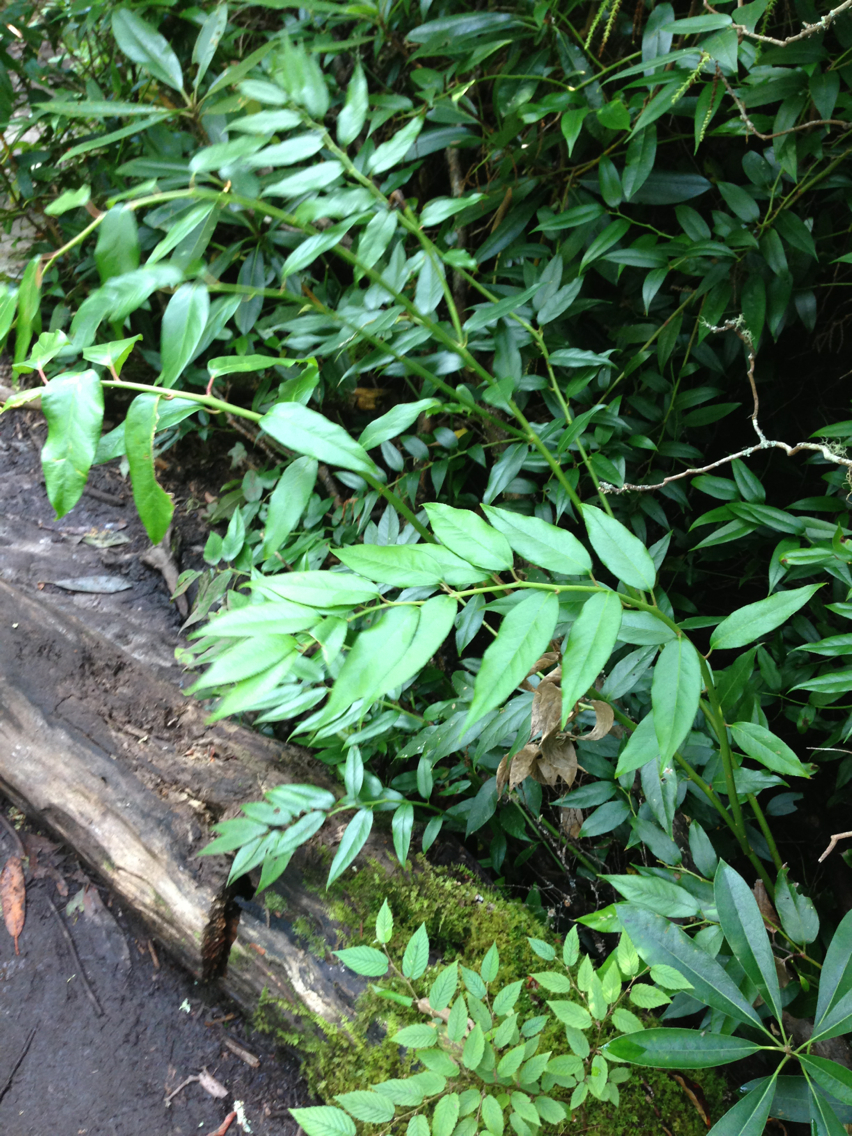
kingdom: Plantae
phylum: Tracheophyta
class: Magnoliopsida
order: Ericales
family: Ericaceae
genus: Leucothoe
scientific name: Leucothoe fontanesiana
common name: Fetterbush
